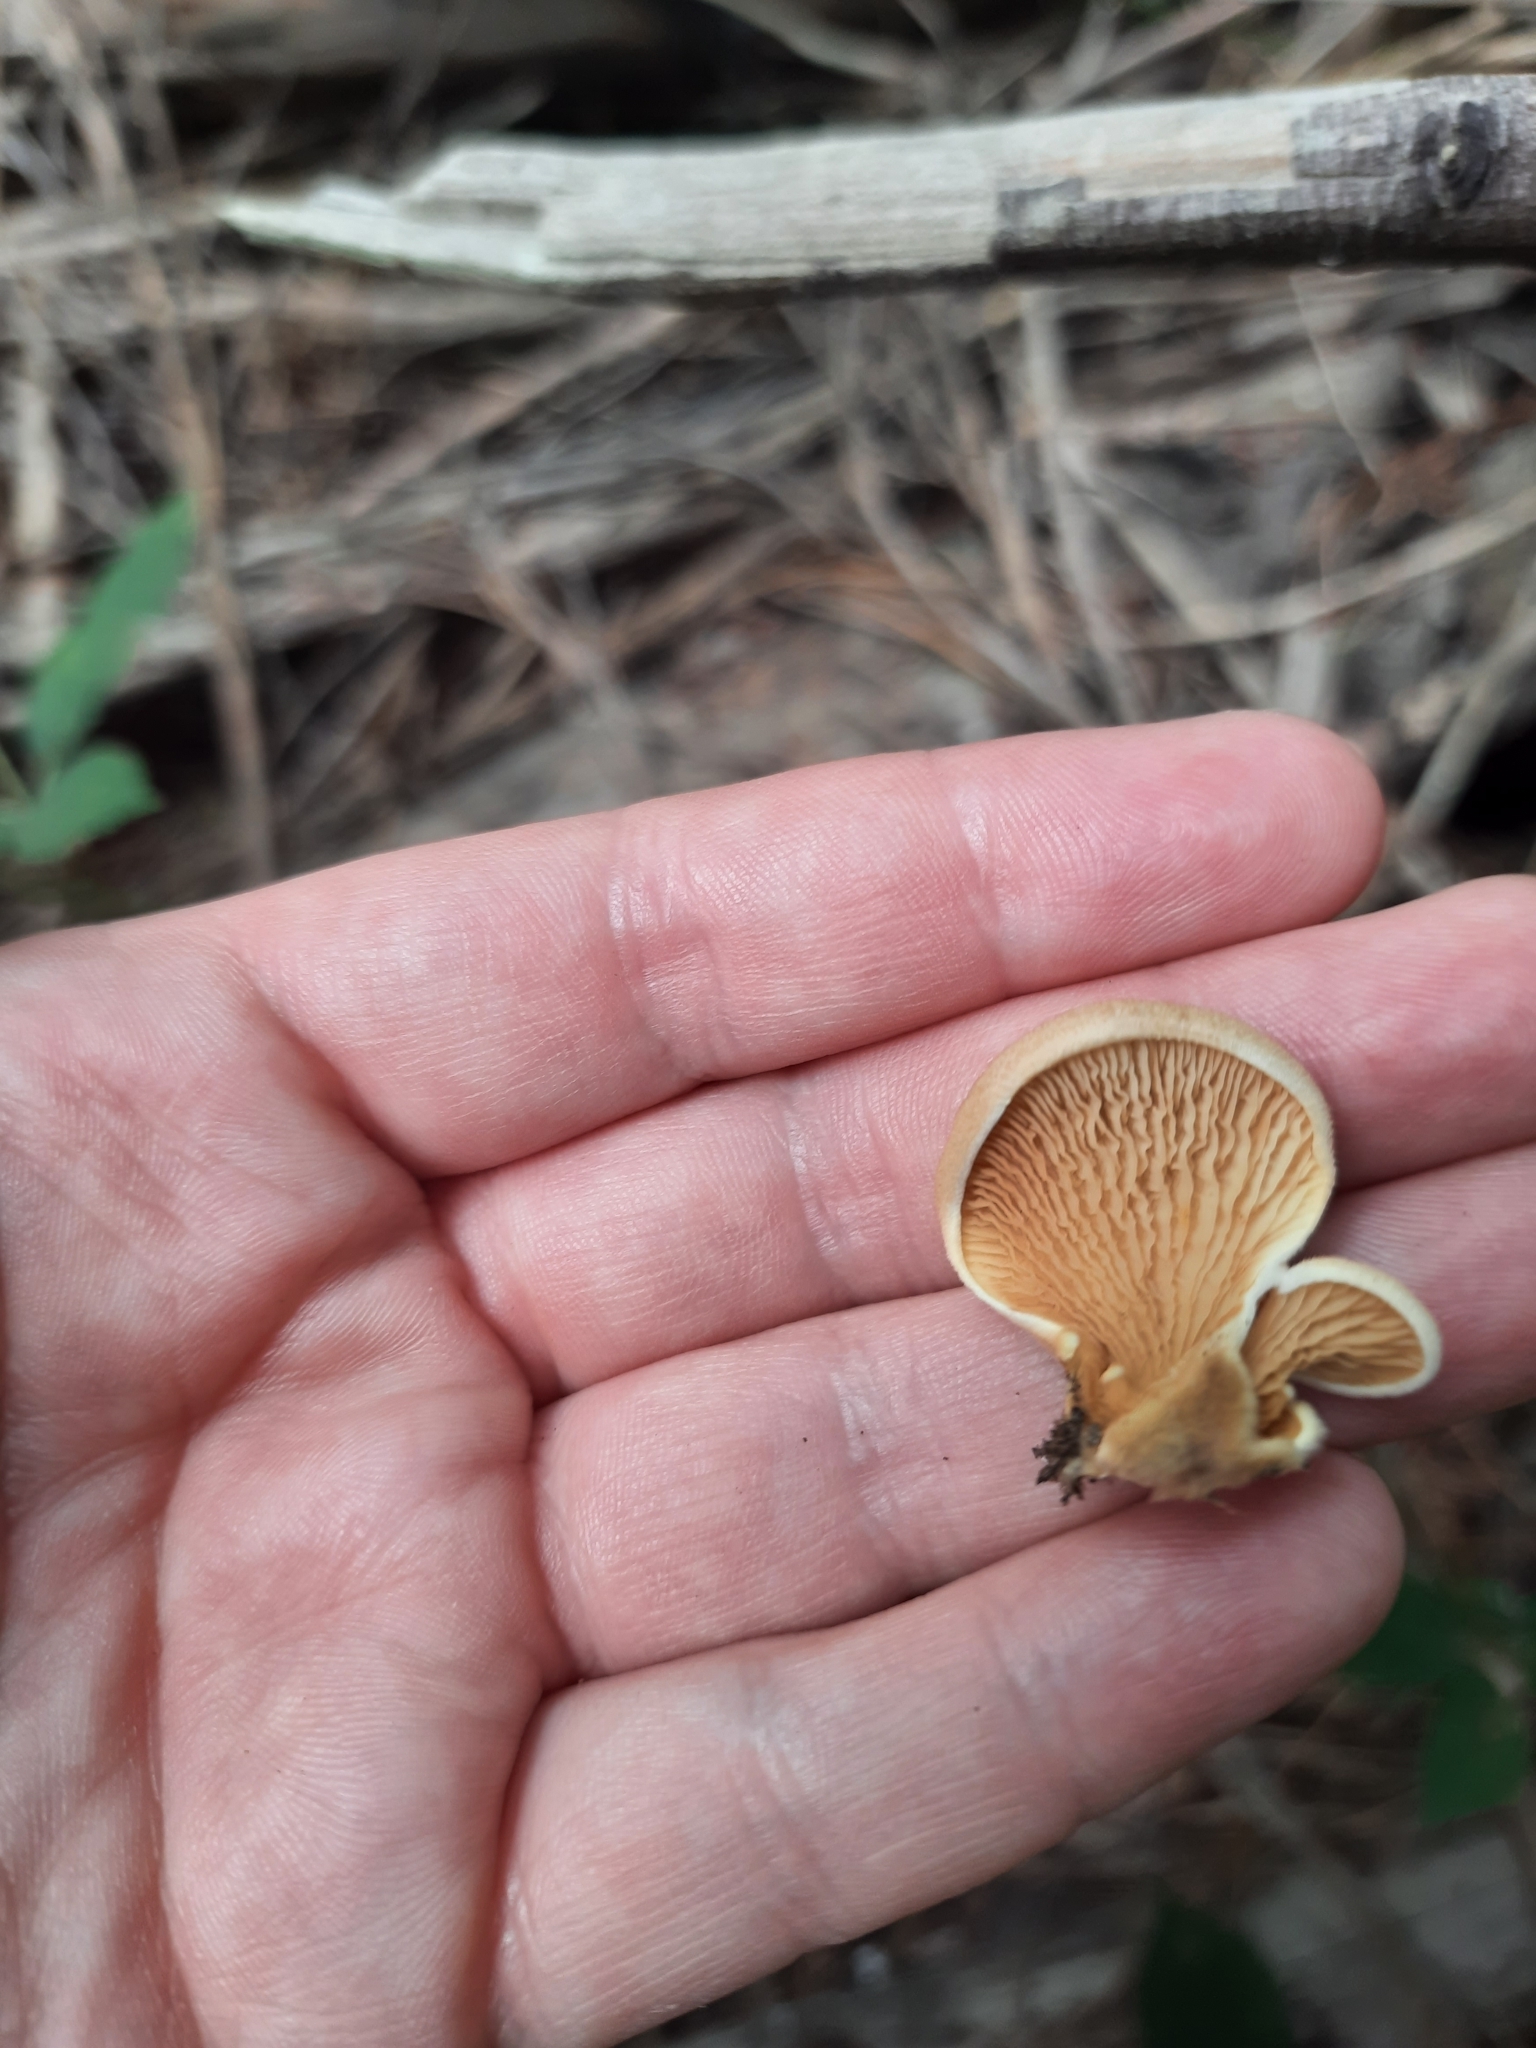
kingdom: Fungi
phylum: Basidiomycota
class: Agaricomycetes
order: Boletales
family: Tapinellaceae
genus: Tapinella
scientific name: Tapinella panuoides
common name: Oyster rollrim
